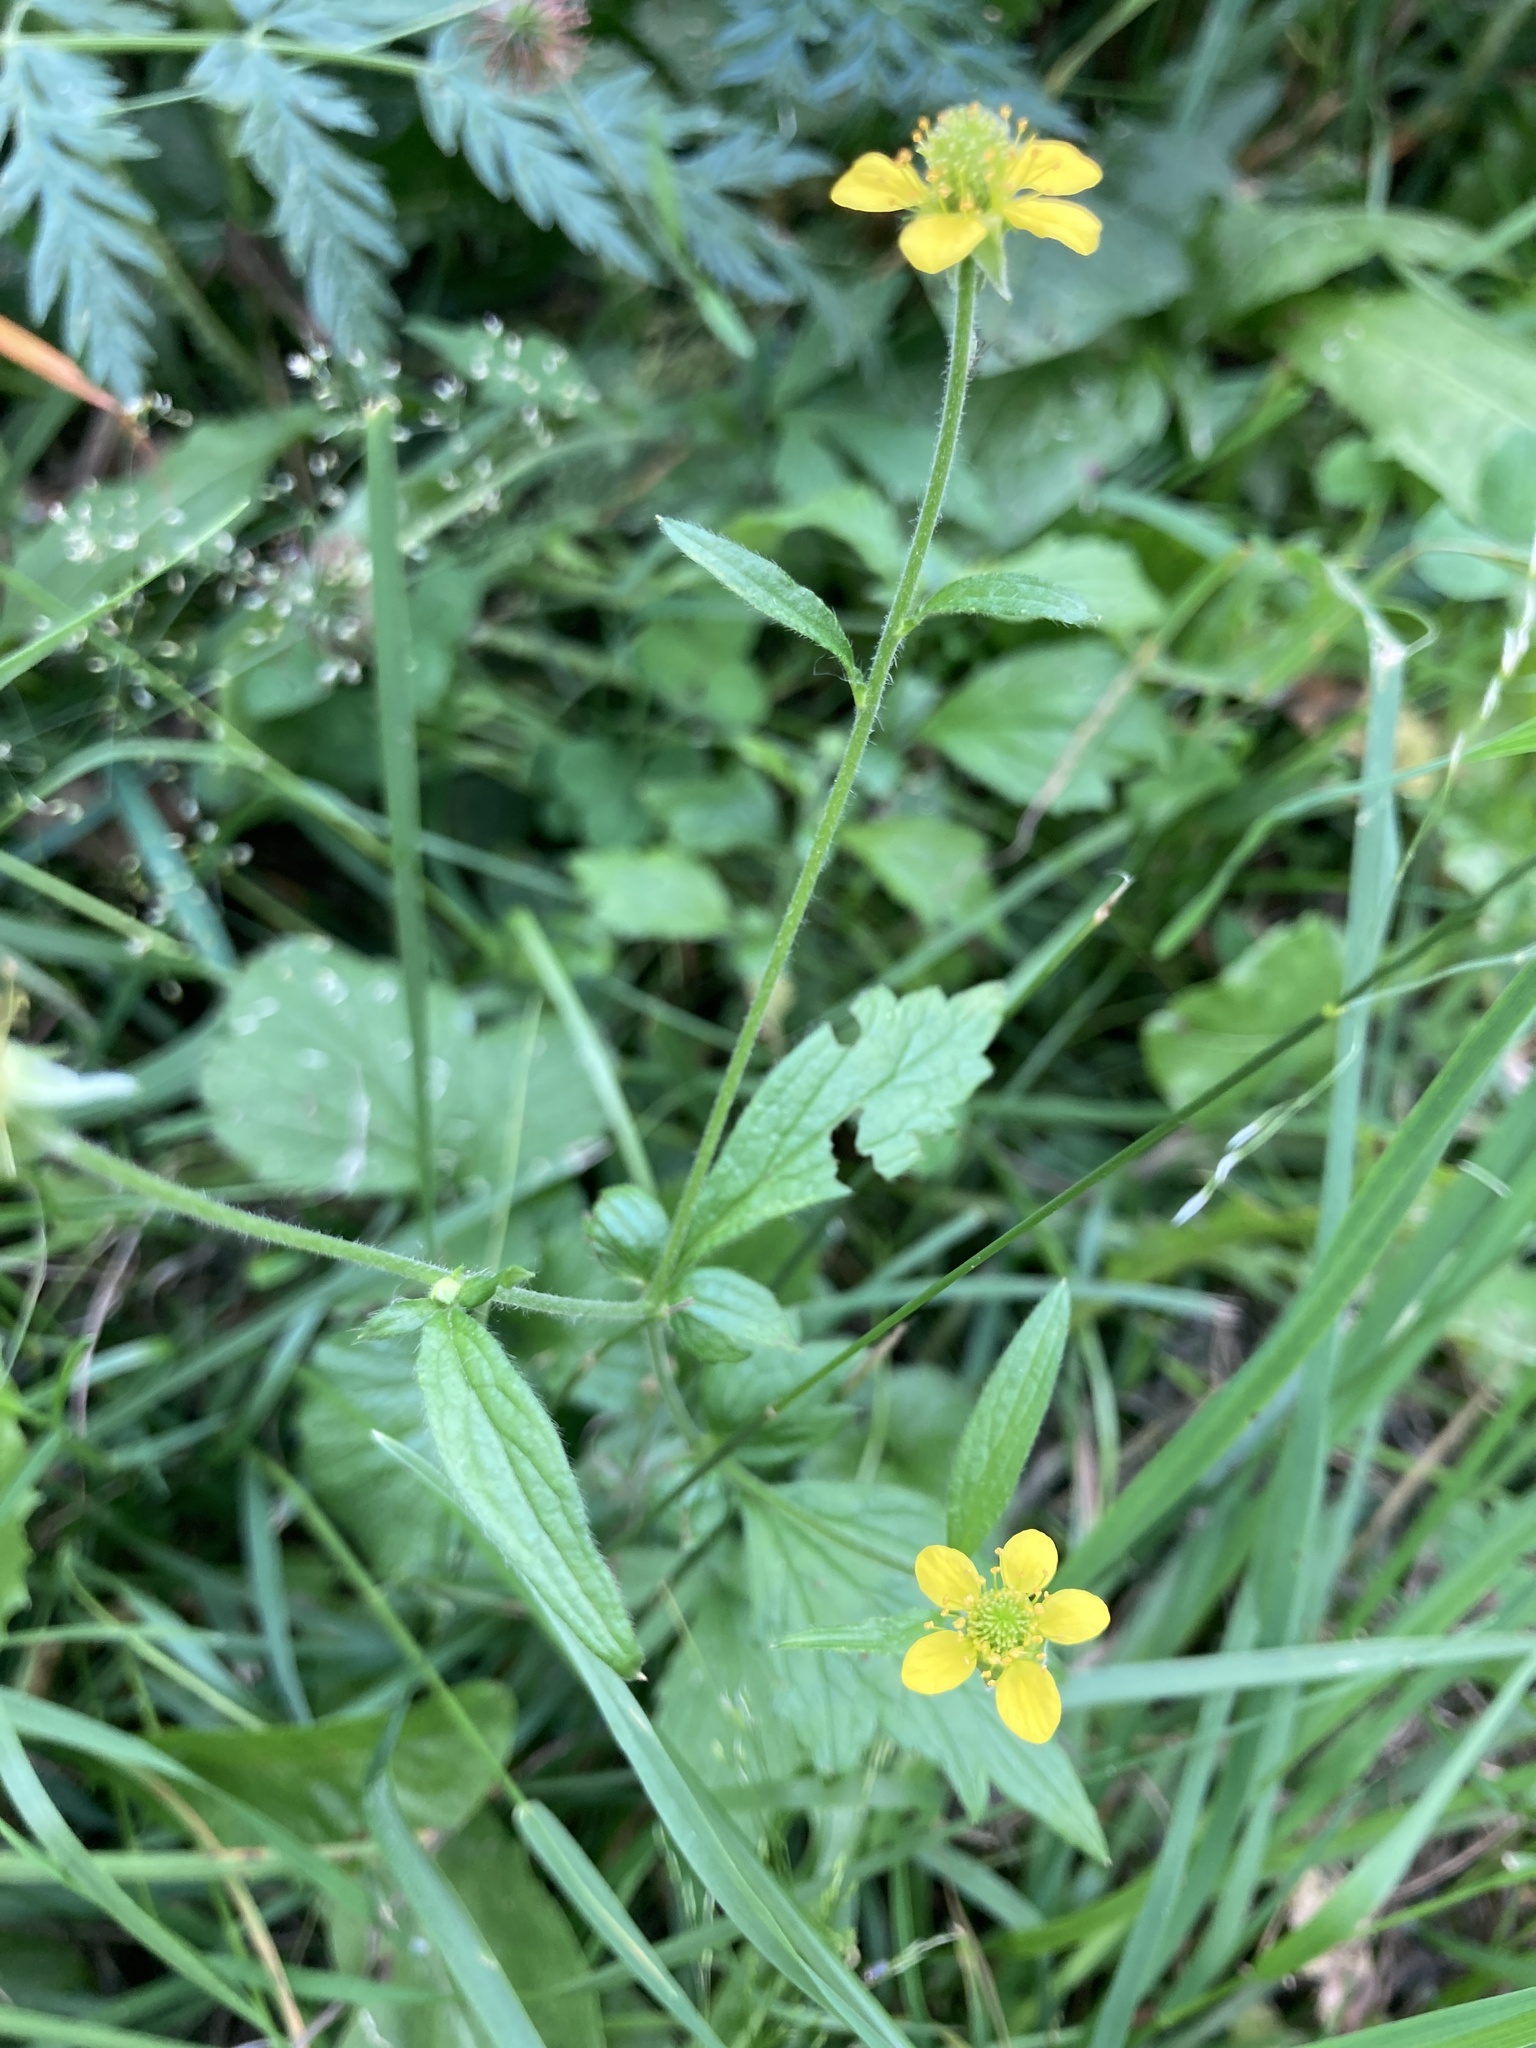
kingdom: Plantae
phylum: Tracheophyta
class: Magnoliopsida
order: Rosales
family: Rosaceae
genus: Geum
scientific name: Geum urbanum
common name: Wood avens
